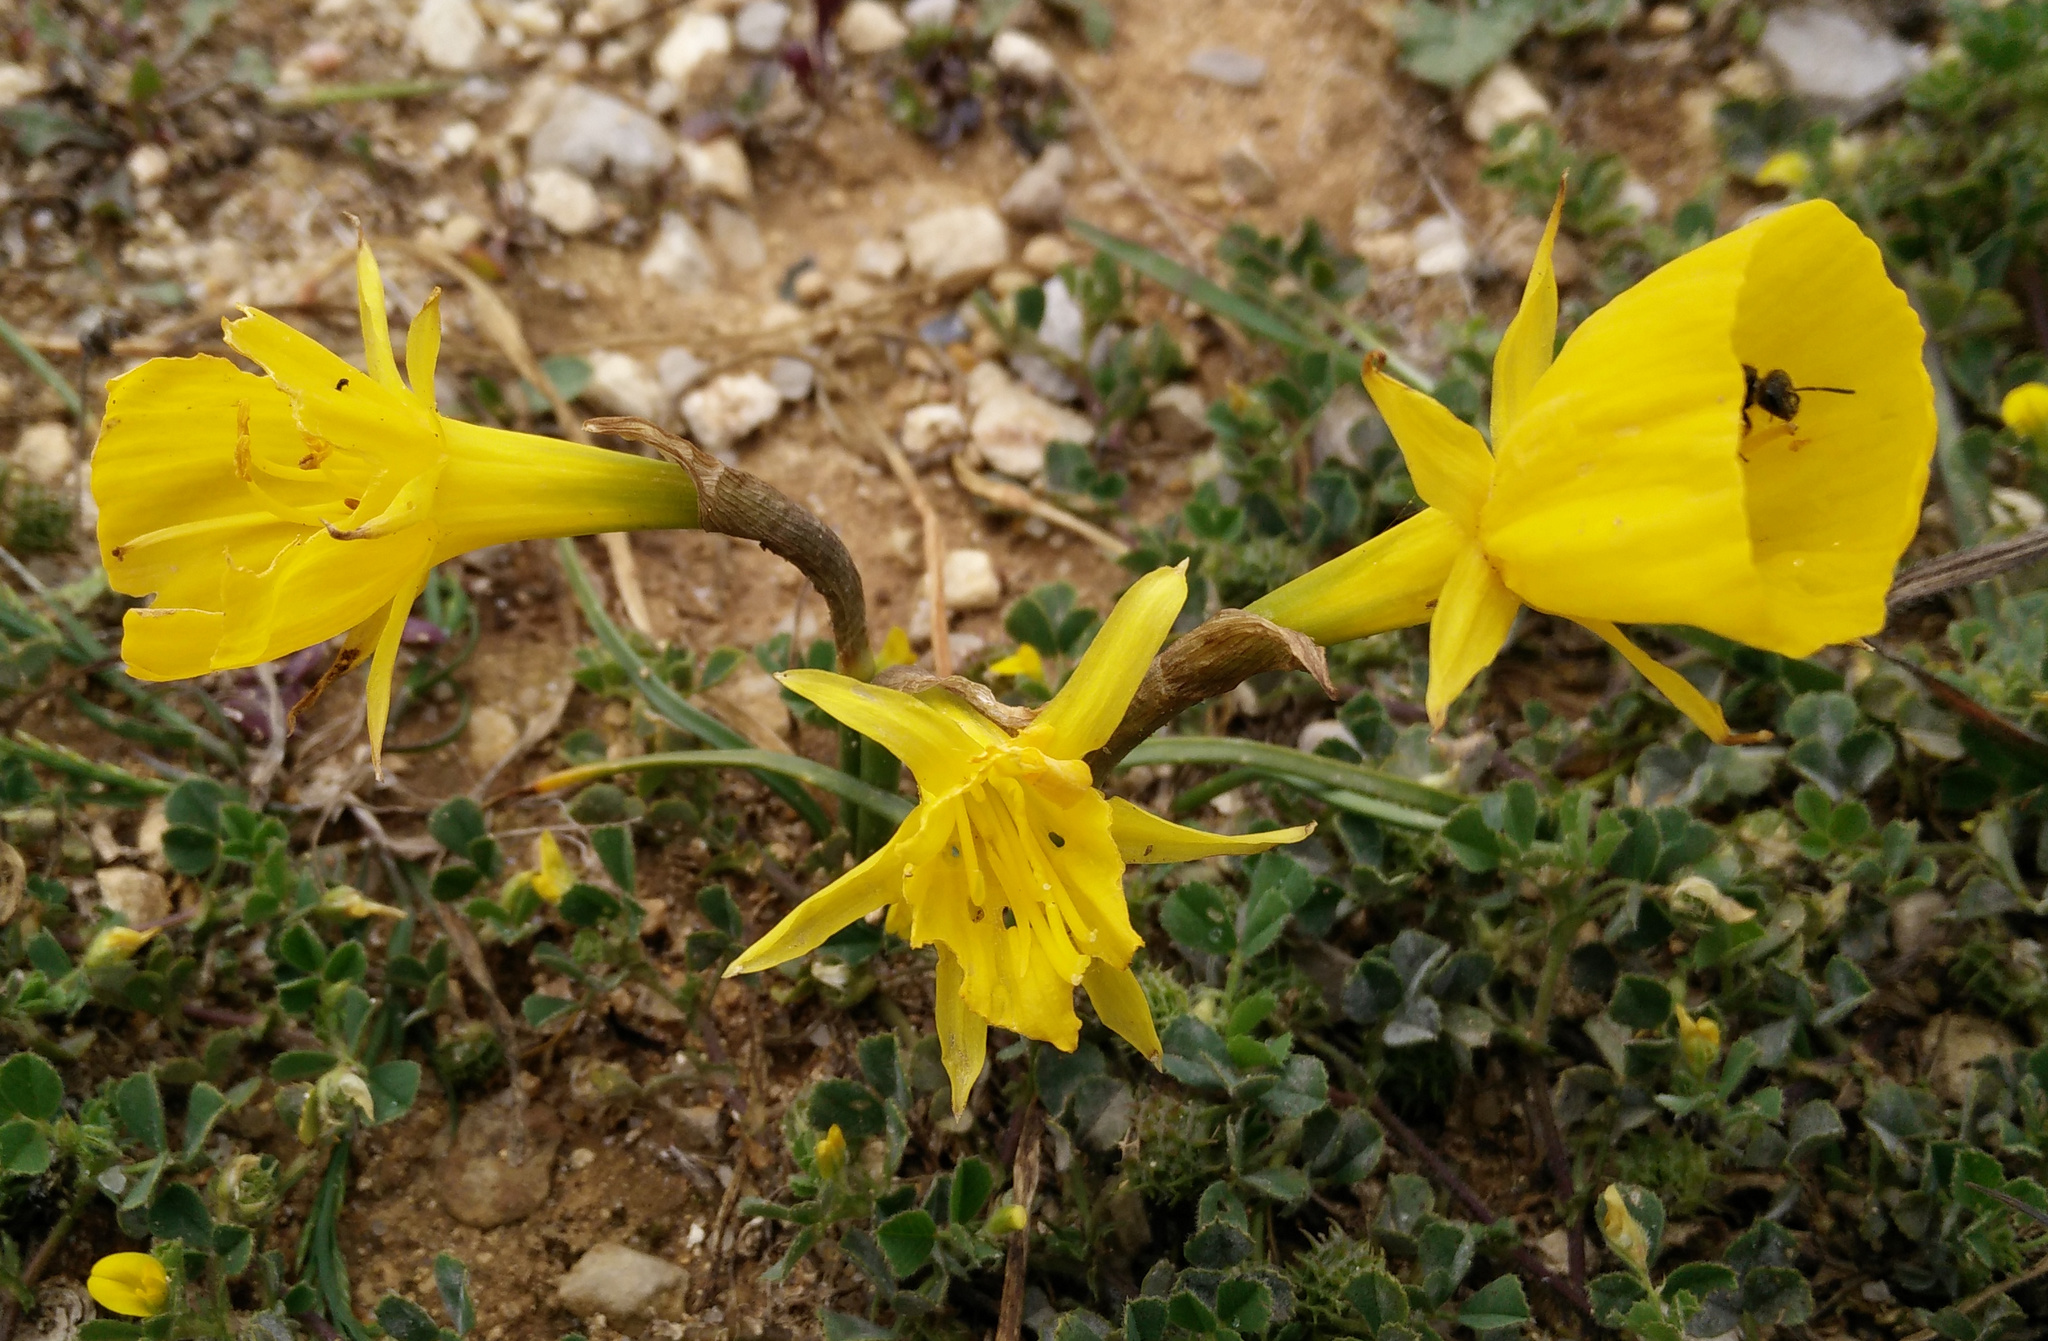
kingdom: Plantae
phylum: Tracheophyta
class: Liliopsida
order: Asparagales
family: Amaryllidaceae
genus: Narcissus
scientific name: Narcissus bulbocodium
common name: Hoop-petticoat daffodil
